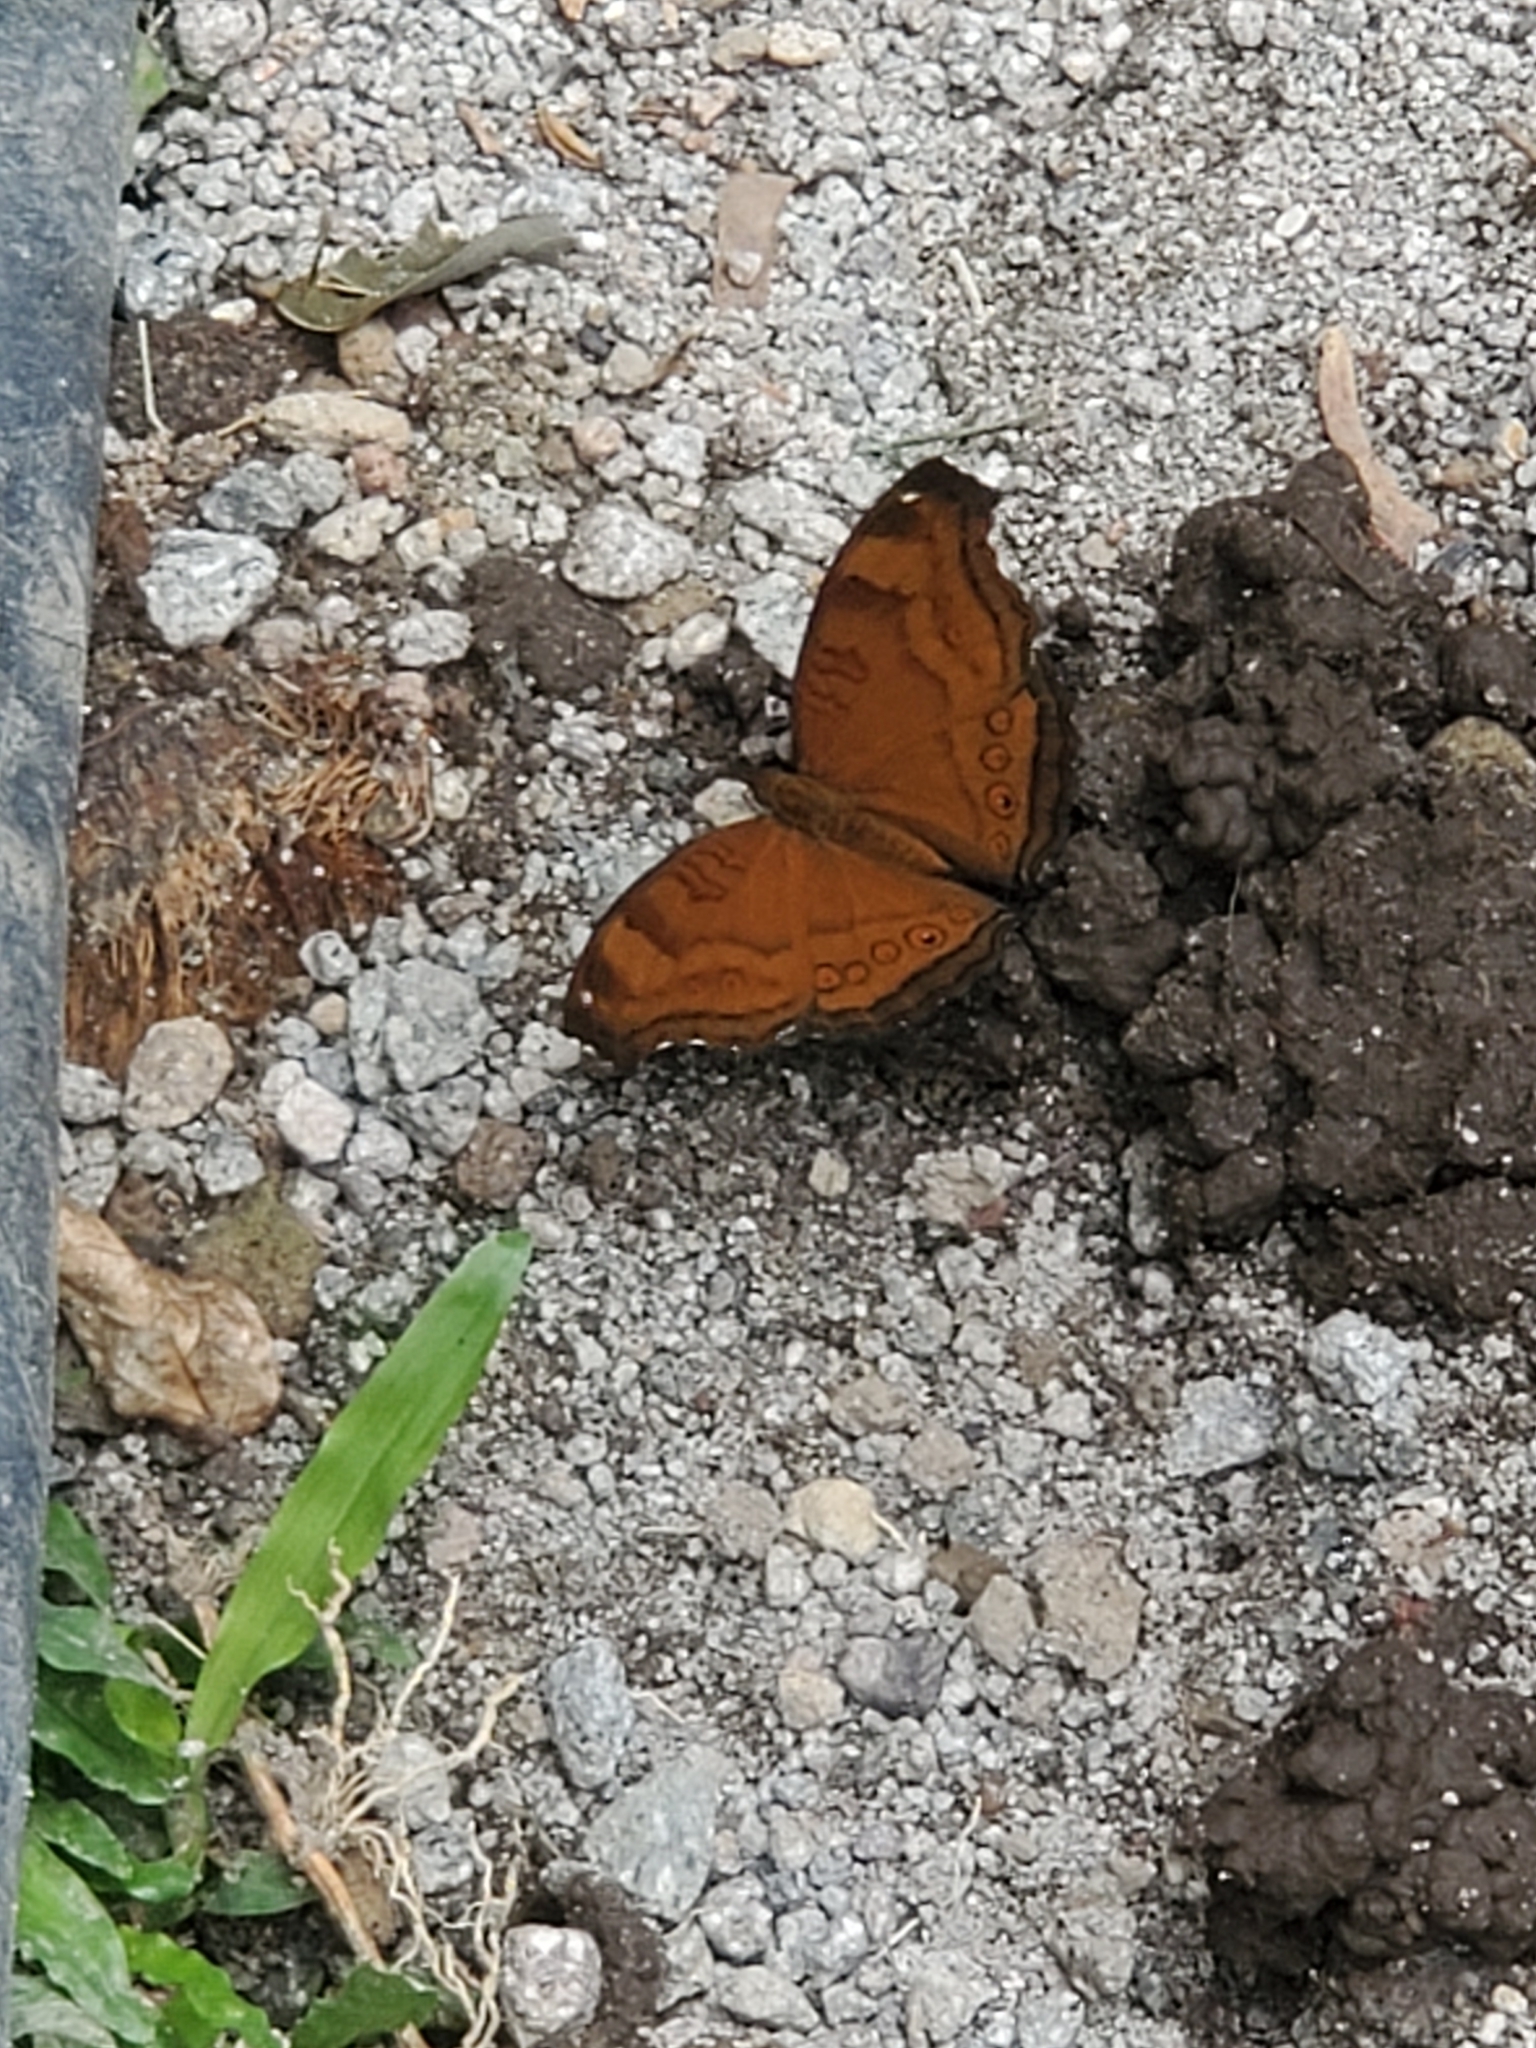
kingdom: Animalia
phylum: Arthropoda
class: Insecta
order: Lepidoptera
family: Nymphalidae
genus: Junonia
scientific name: Junonia hedonia
